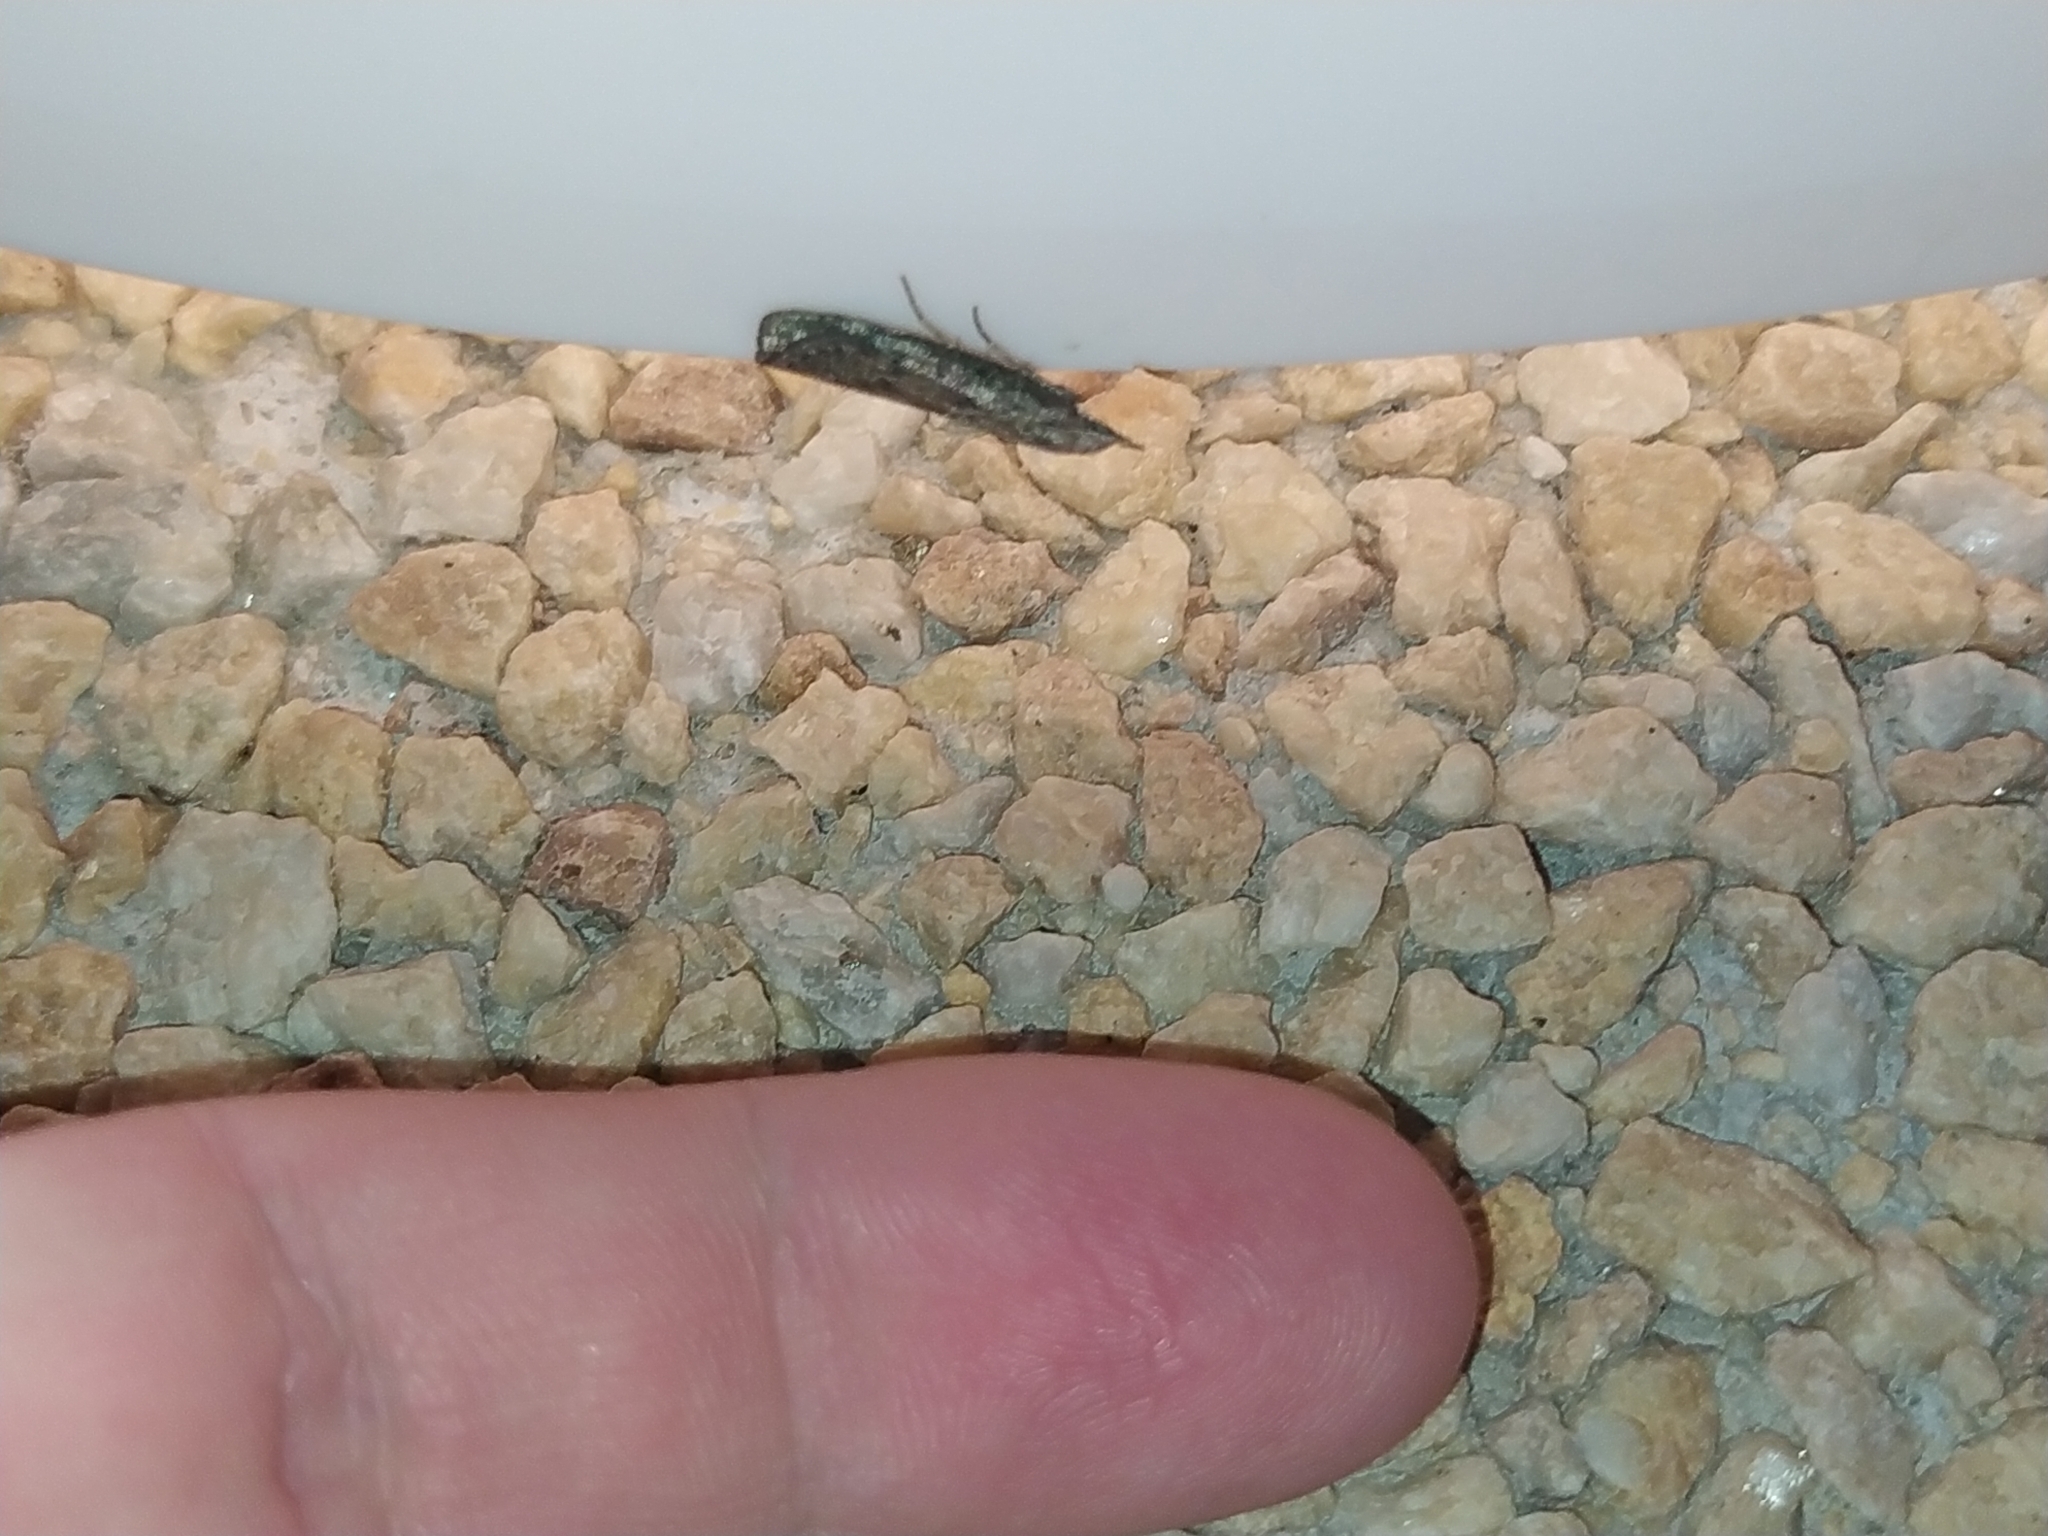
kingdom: Animalia
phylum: Arthropoda
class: Insecta
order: Lepidoptera
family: Pyralidae
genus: Aphomia
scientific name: Aphomia sociella
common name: Bee moth
